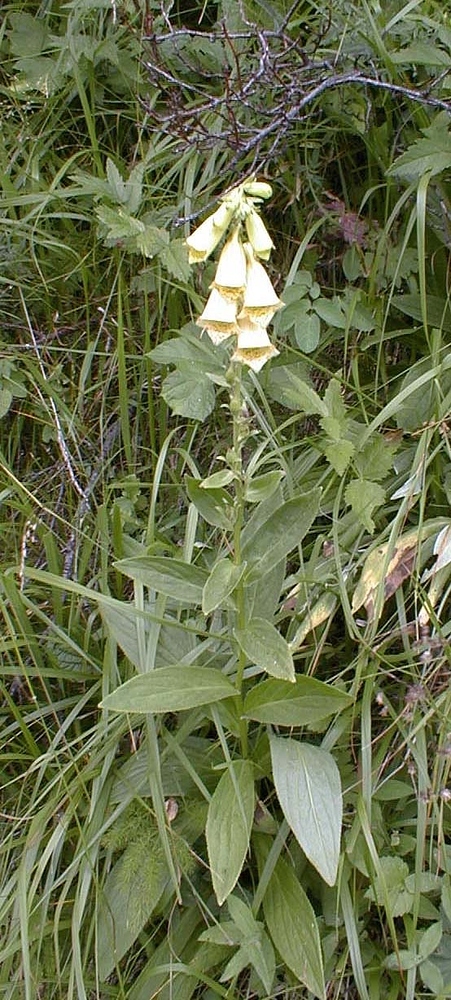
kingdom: Plantae
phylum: Tracheophyta
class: Magnoliopsida
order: Lamiales
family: Plantaginaceae
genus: Digitalis
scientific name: Digitalis grandiflora
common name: Yellow foxglove
